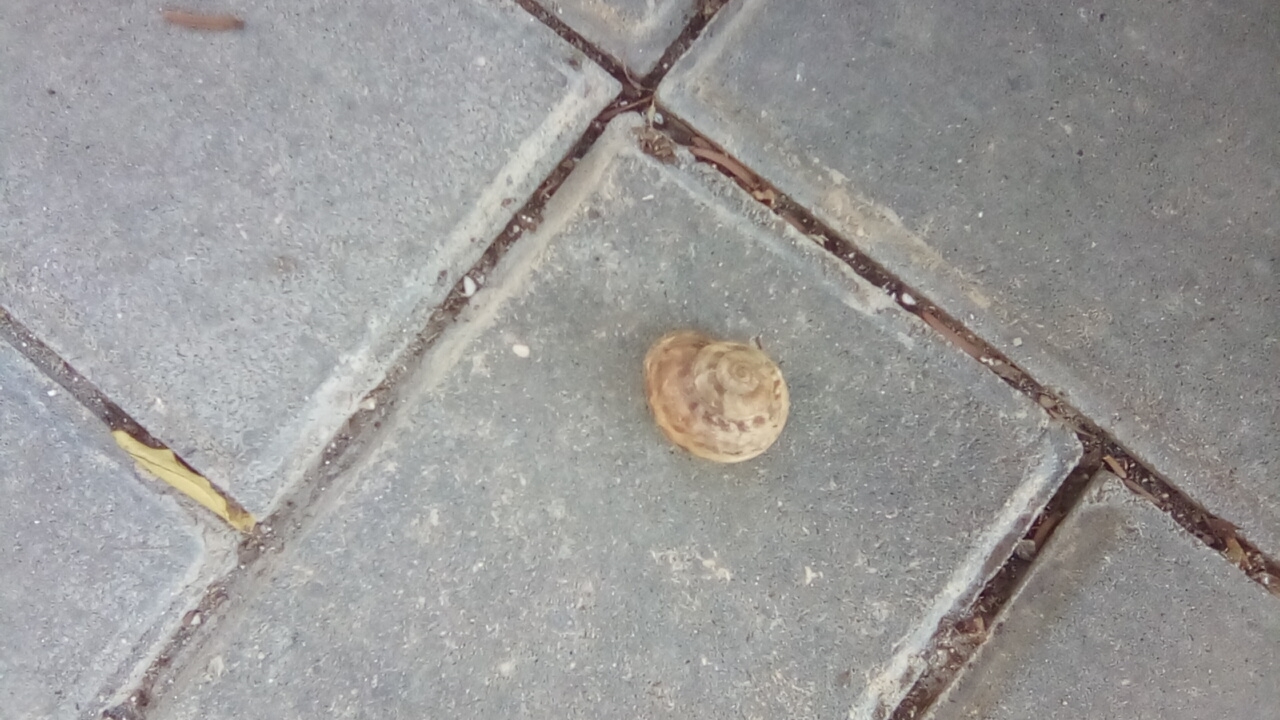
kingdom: Animalia
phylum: Mollusca
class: Gastropoda
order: Stylommatophora
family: Helicidae
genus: Eobania
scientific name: Eobania vermiculata
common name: Chocolateband snail
